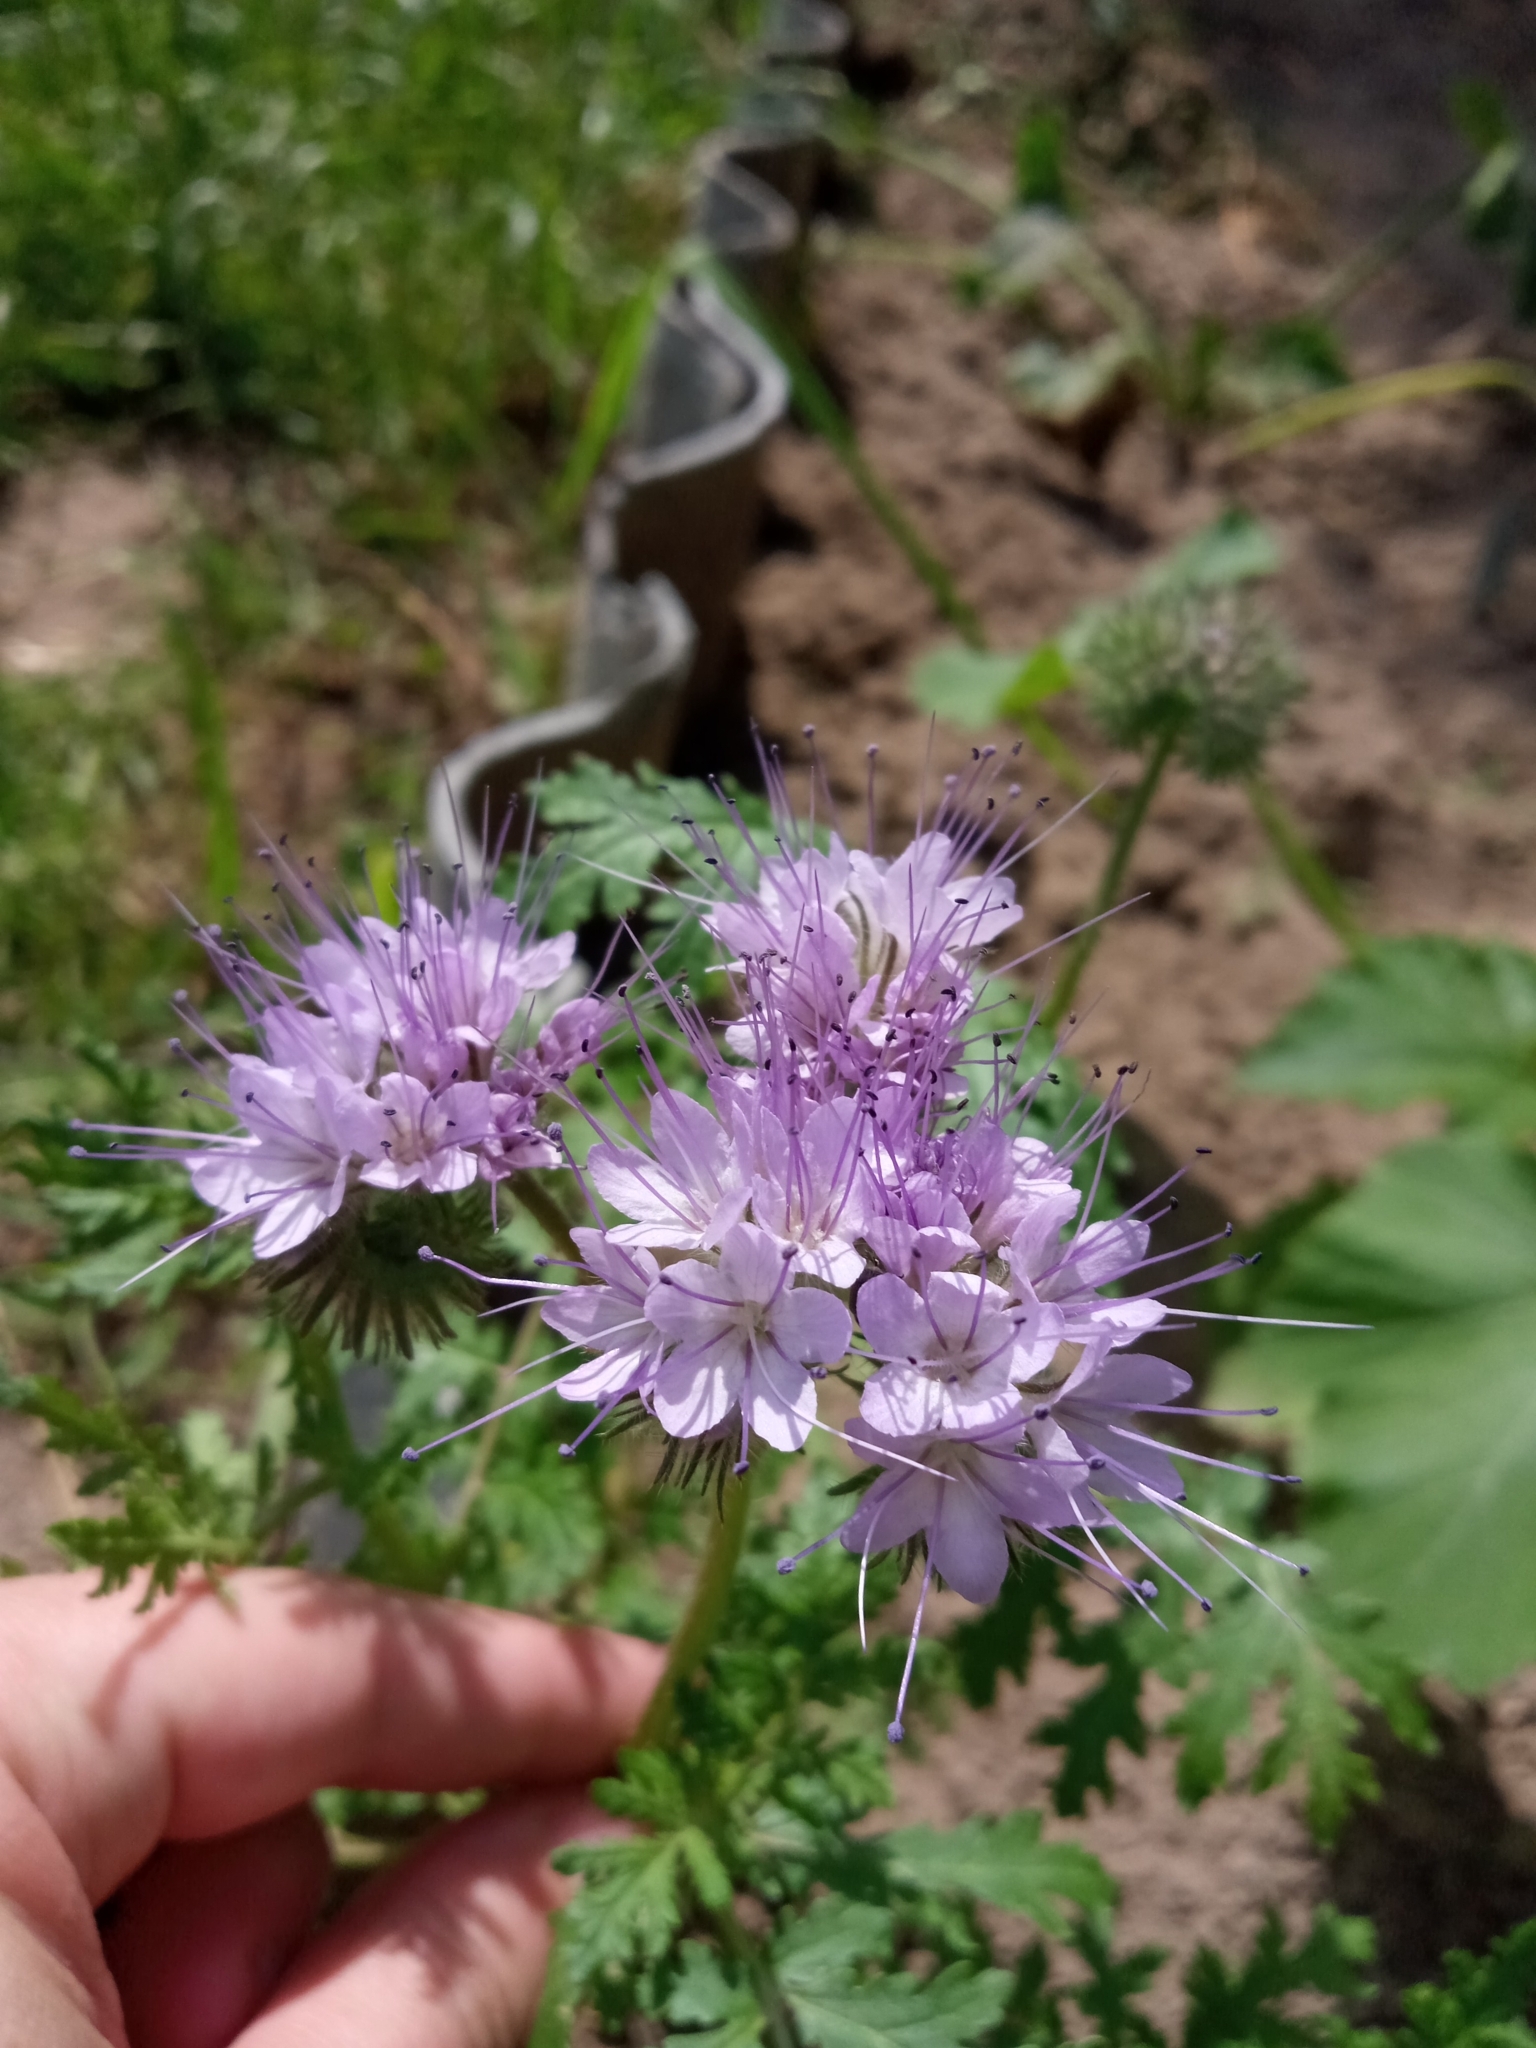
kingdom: Plantae
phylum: Tracheophyta
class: Magnoliopsida
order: Boraginales
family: Hydrophyllaceae
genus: Phacelia
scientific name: Phacelia tanacetifolia
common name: Phacelia
